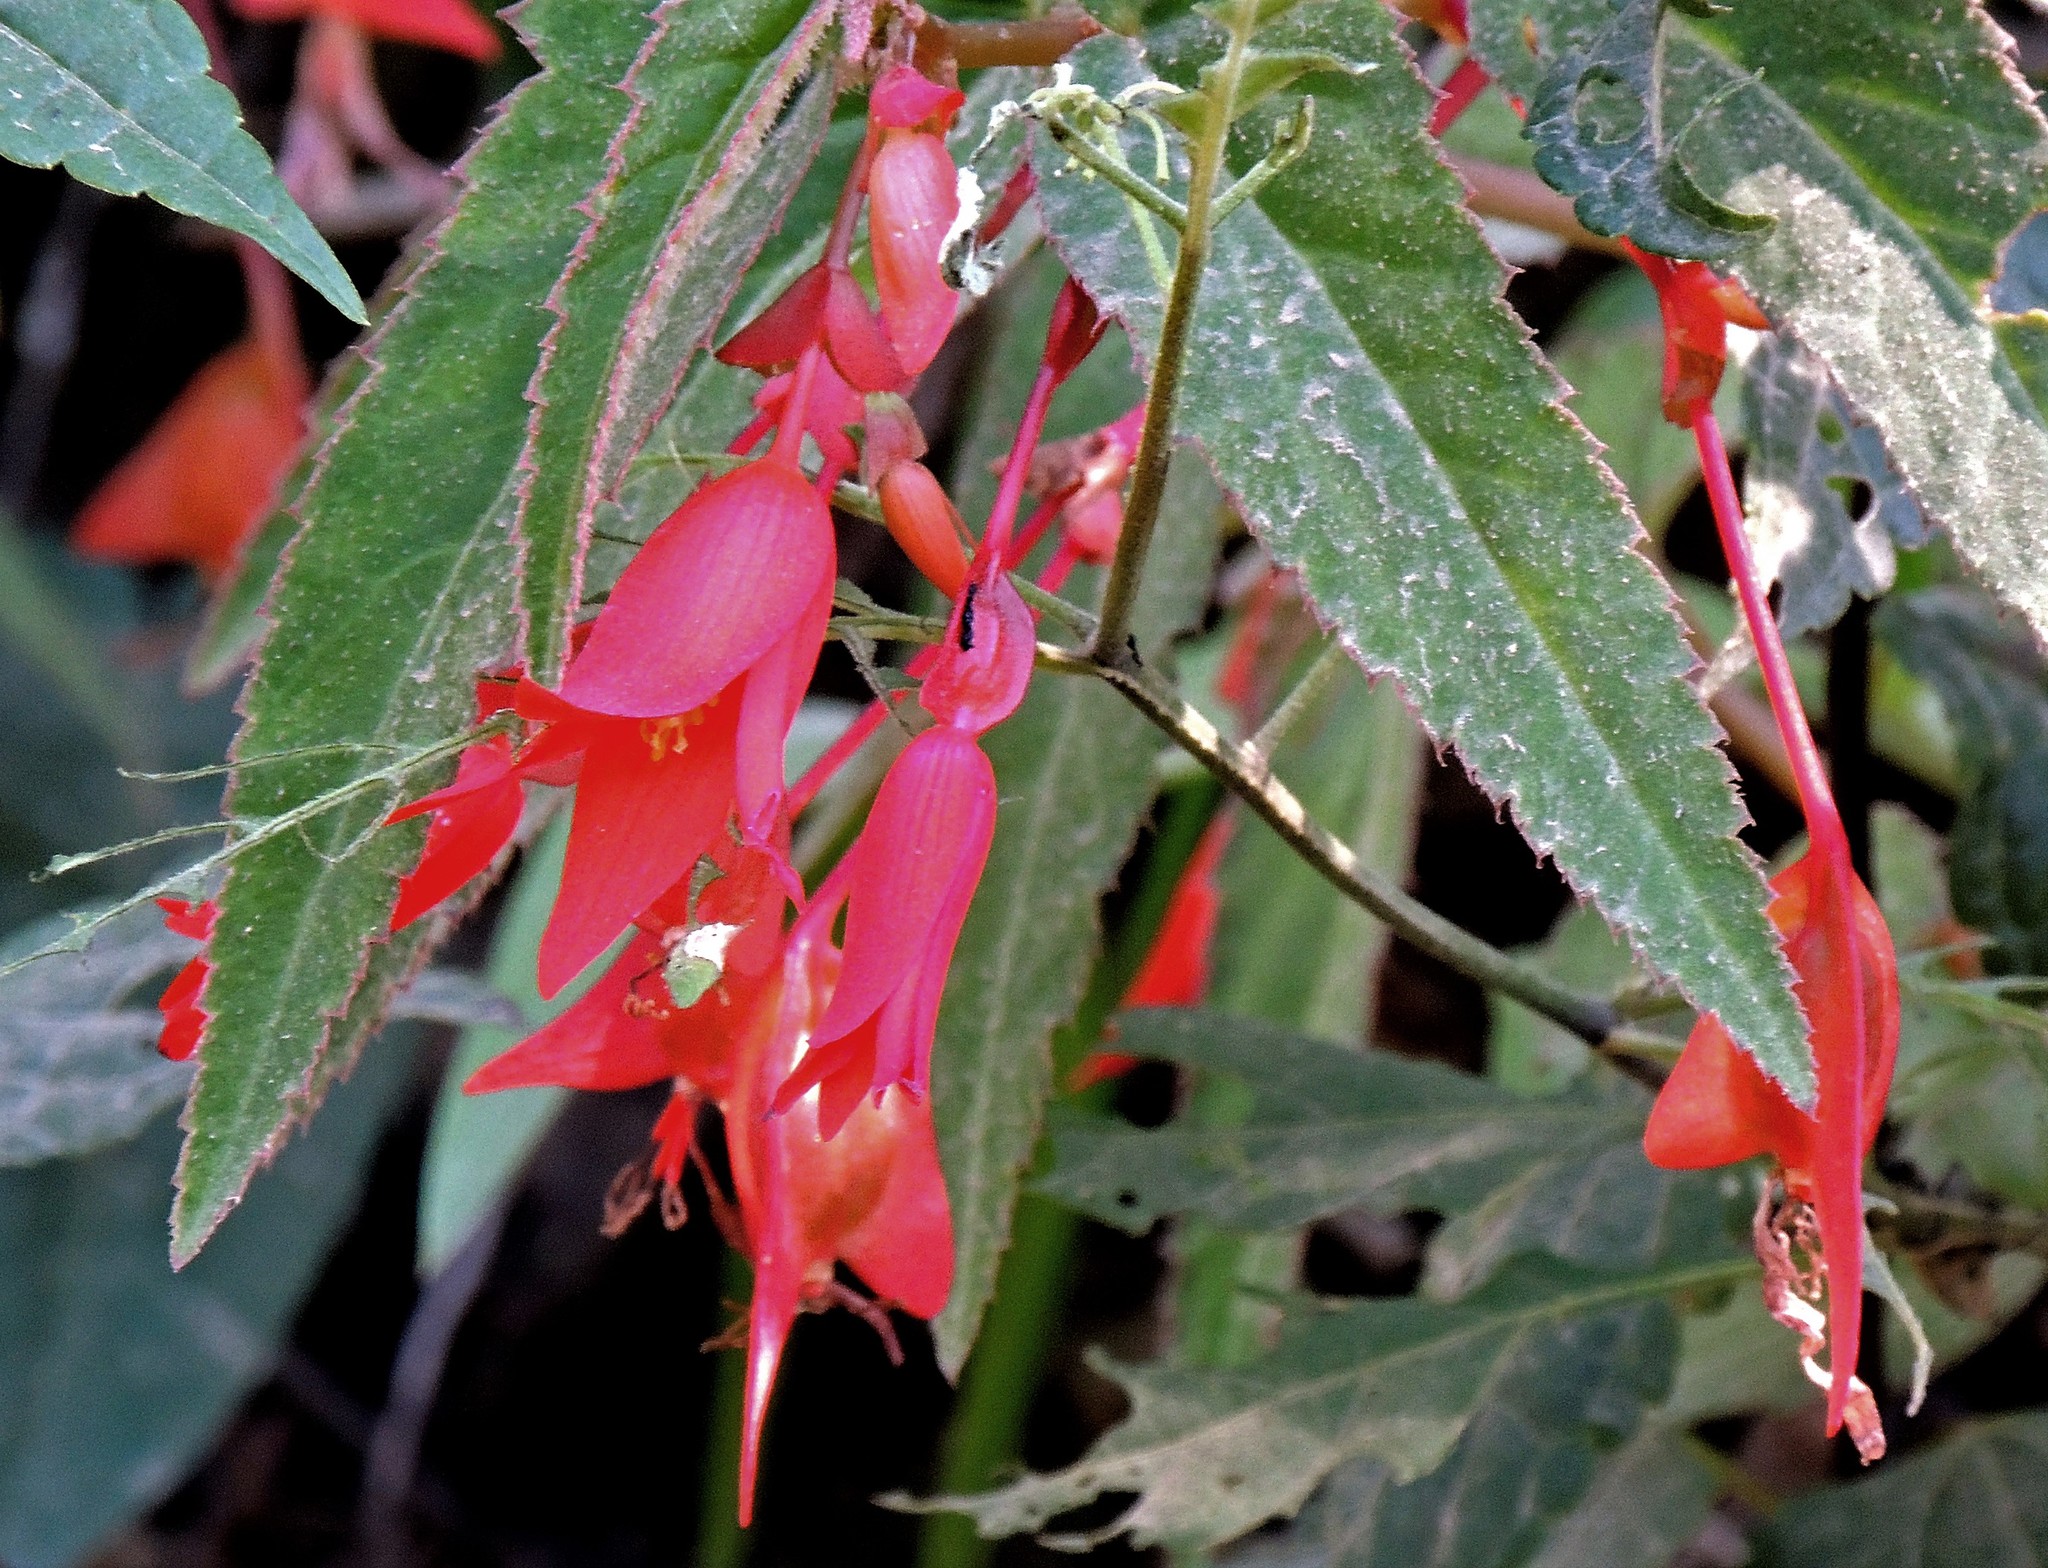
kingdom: Plantae
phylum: Tracheophyta
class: Magnoliopsida
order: Cucurbitales
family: Begoniaceae
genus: Begonia
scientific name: Begonia boliviensis
